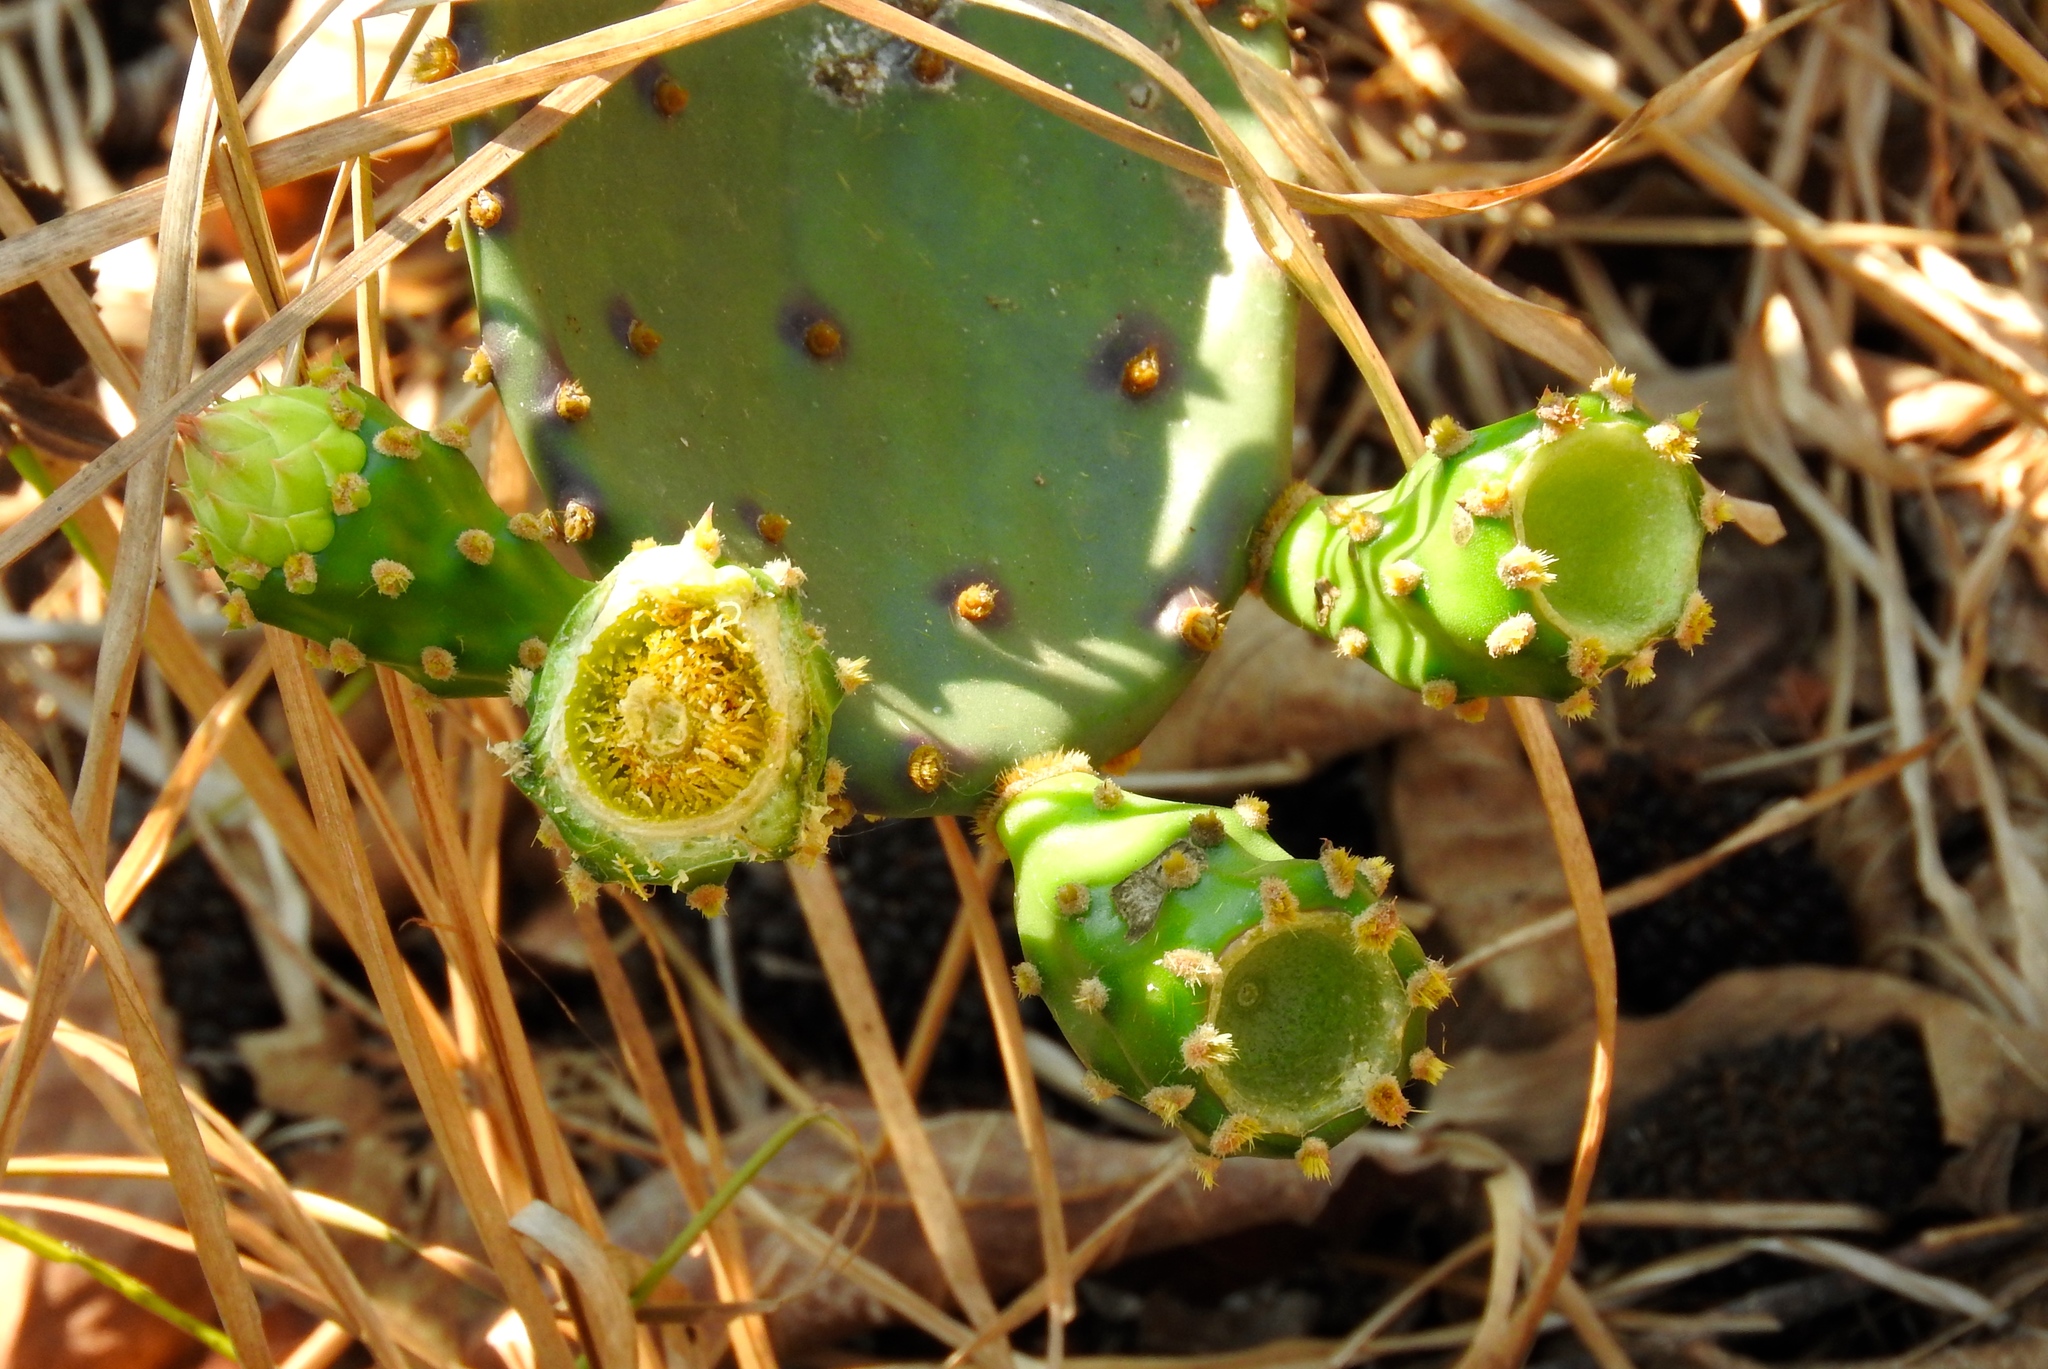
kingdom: Plantae
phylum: Tracheophyta
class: Magnoliopsida
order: Caryophyllales
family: Cactaceae
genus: Opuntia
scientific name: Opuntia wilcoxii
